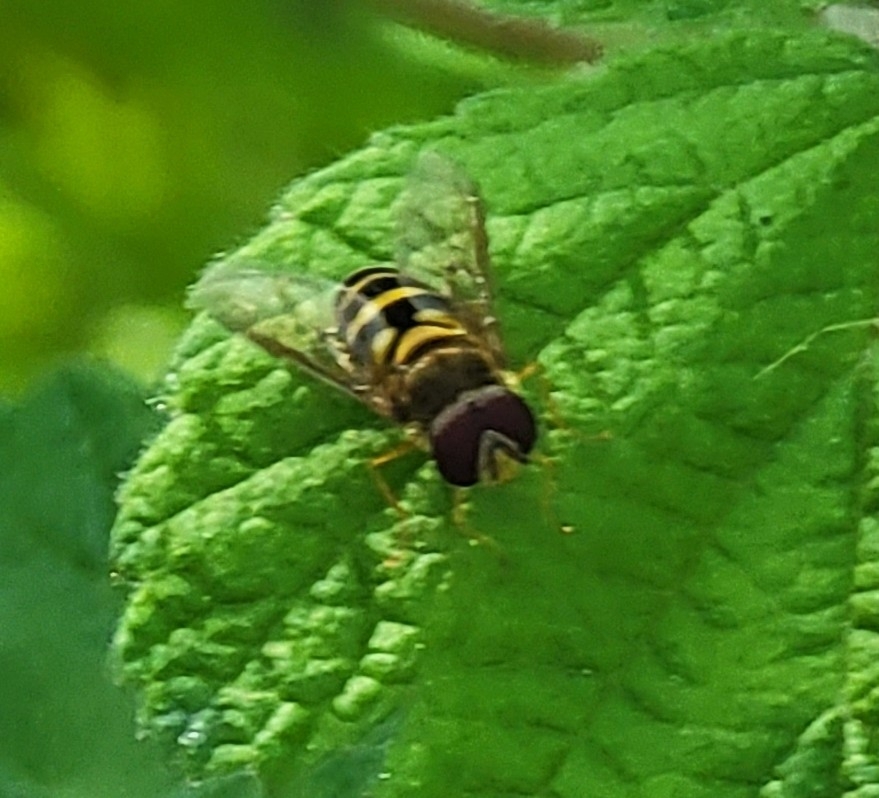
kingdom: Animalia
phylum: Arthropoda
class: Insecta
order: Diptera
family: Syrphidae
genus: Syrphus
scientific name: Syrphus
